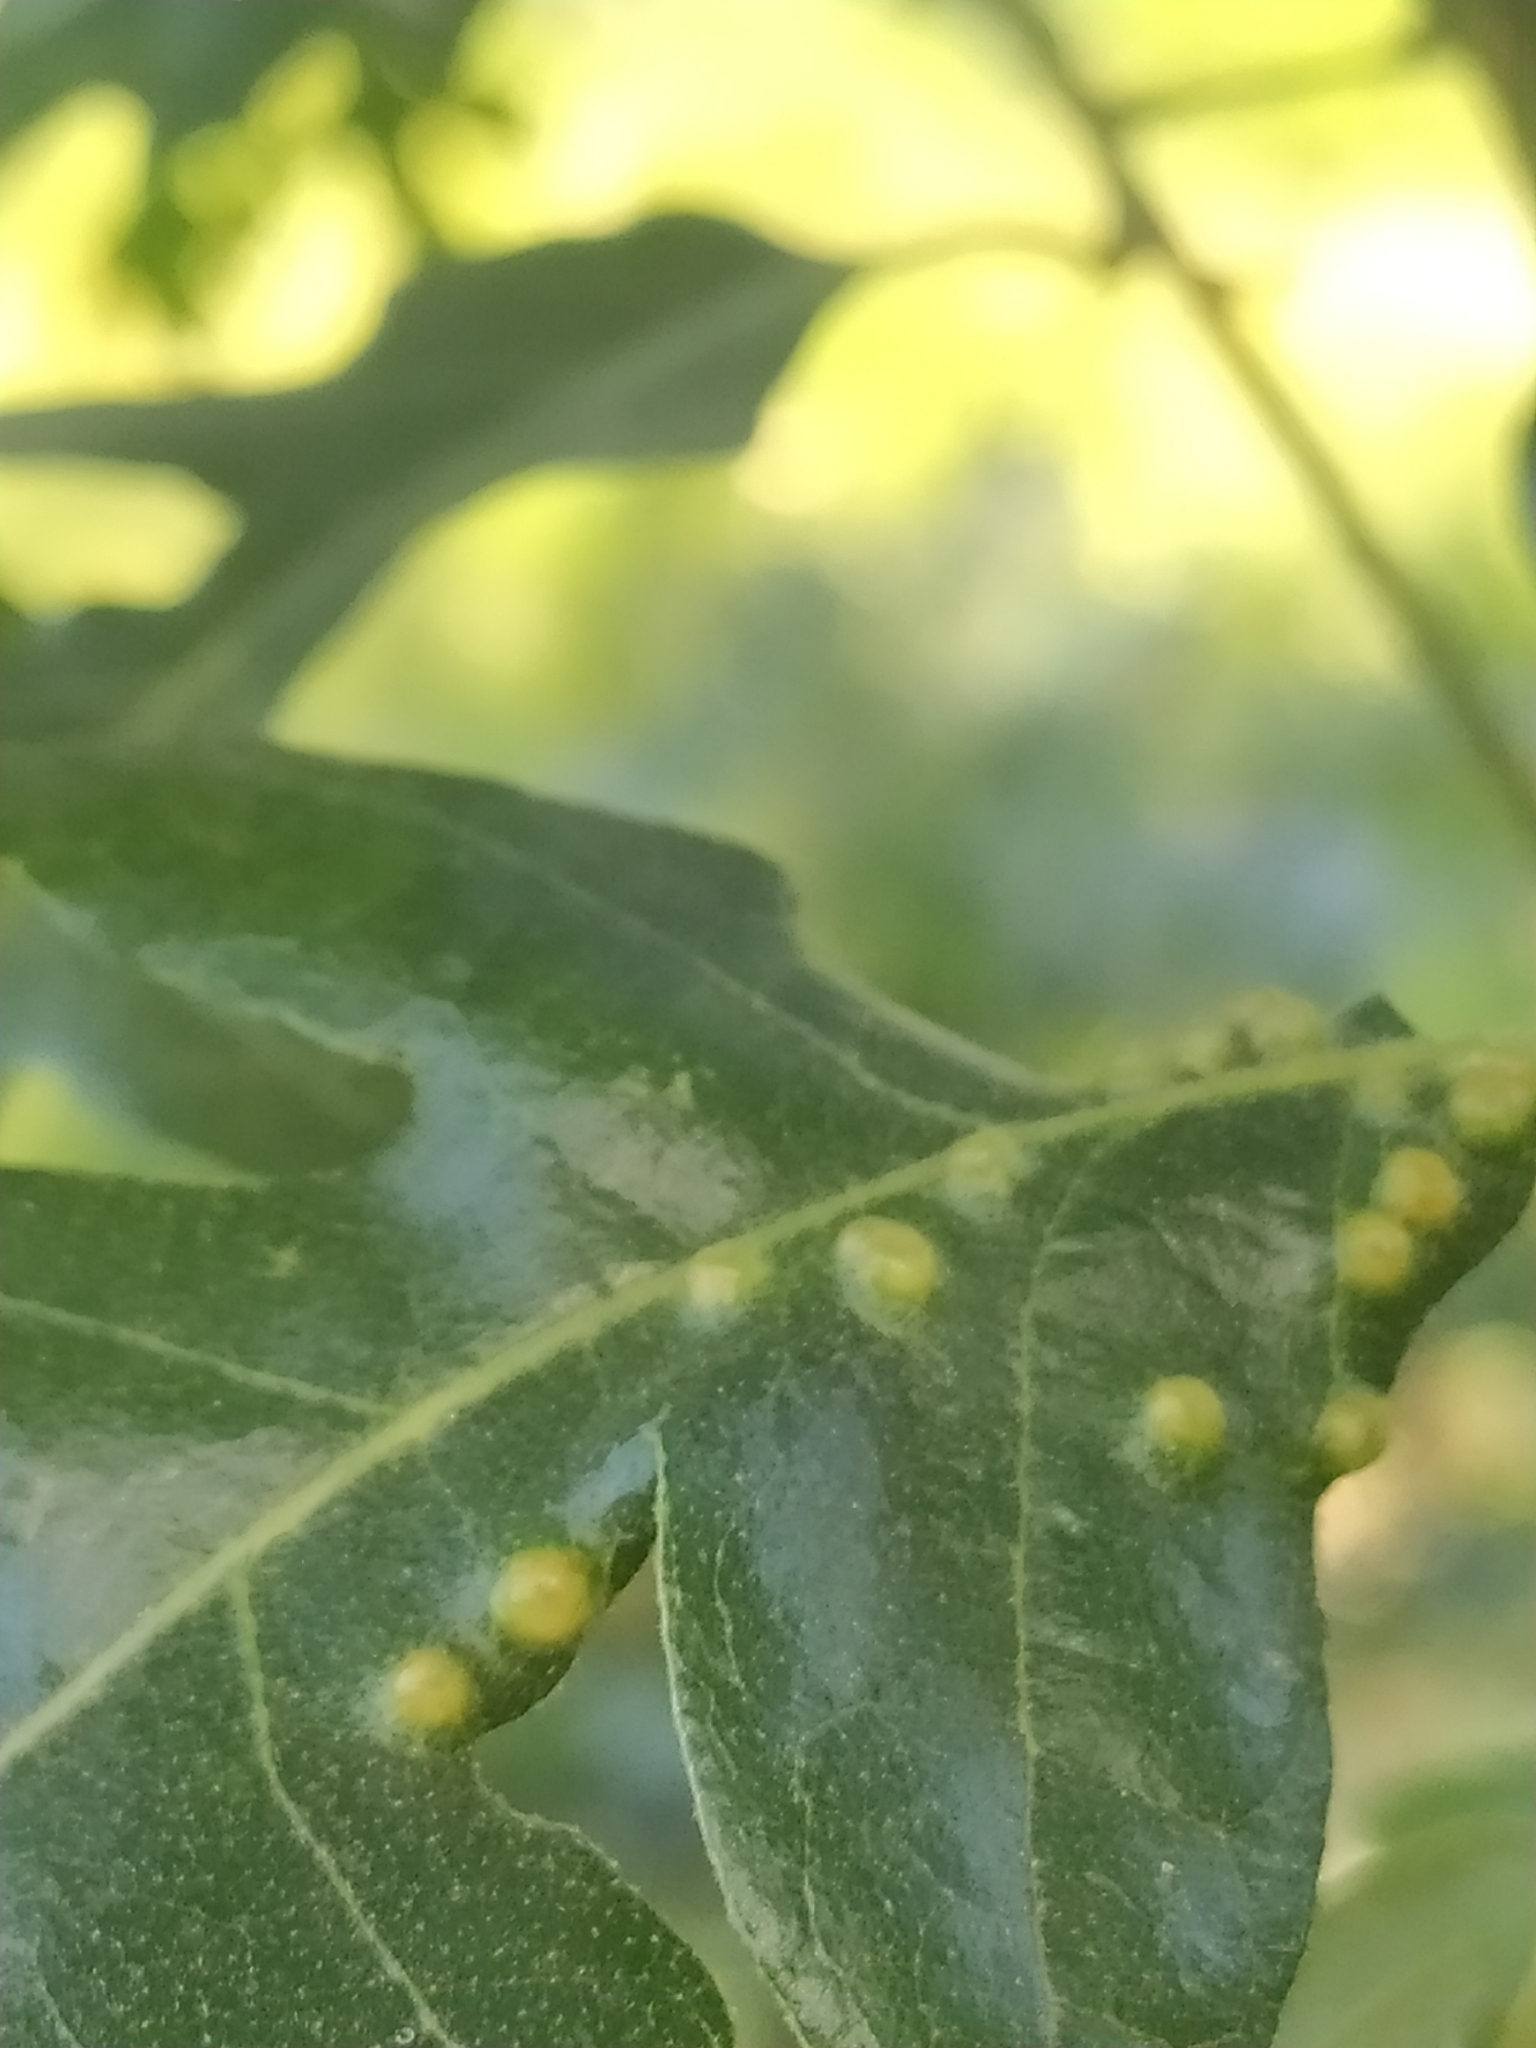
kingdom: Animalia
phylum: Arthropoda
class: Insecta
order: Diptera
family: Cecidomyiidae
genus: Janetia
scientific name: Janetia cerris
